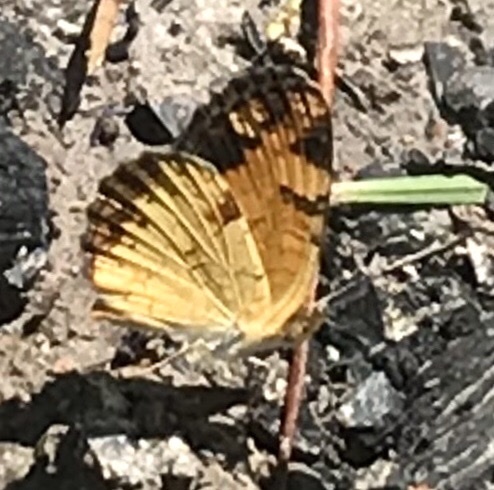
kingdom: Animalia
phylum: Arthropoda
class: Insecta
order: Lepidoptera
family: Nymphalidae
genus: Phyciodes
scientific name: Phyciodes tharos
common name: Pearl crescent
